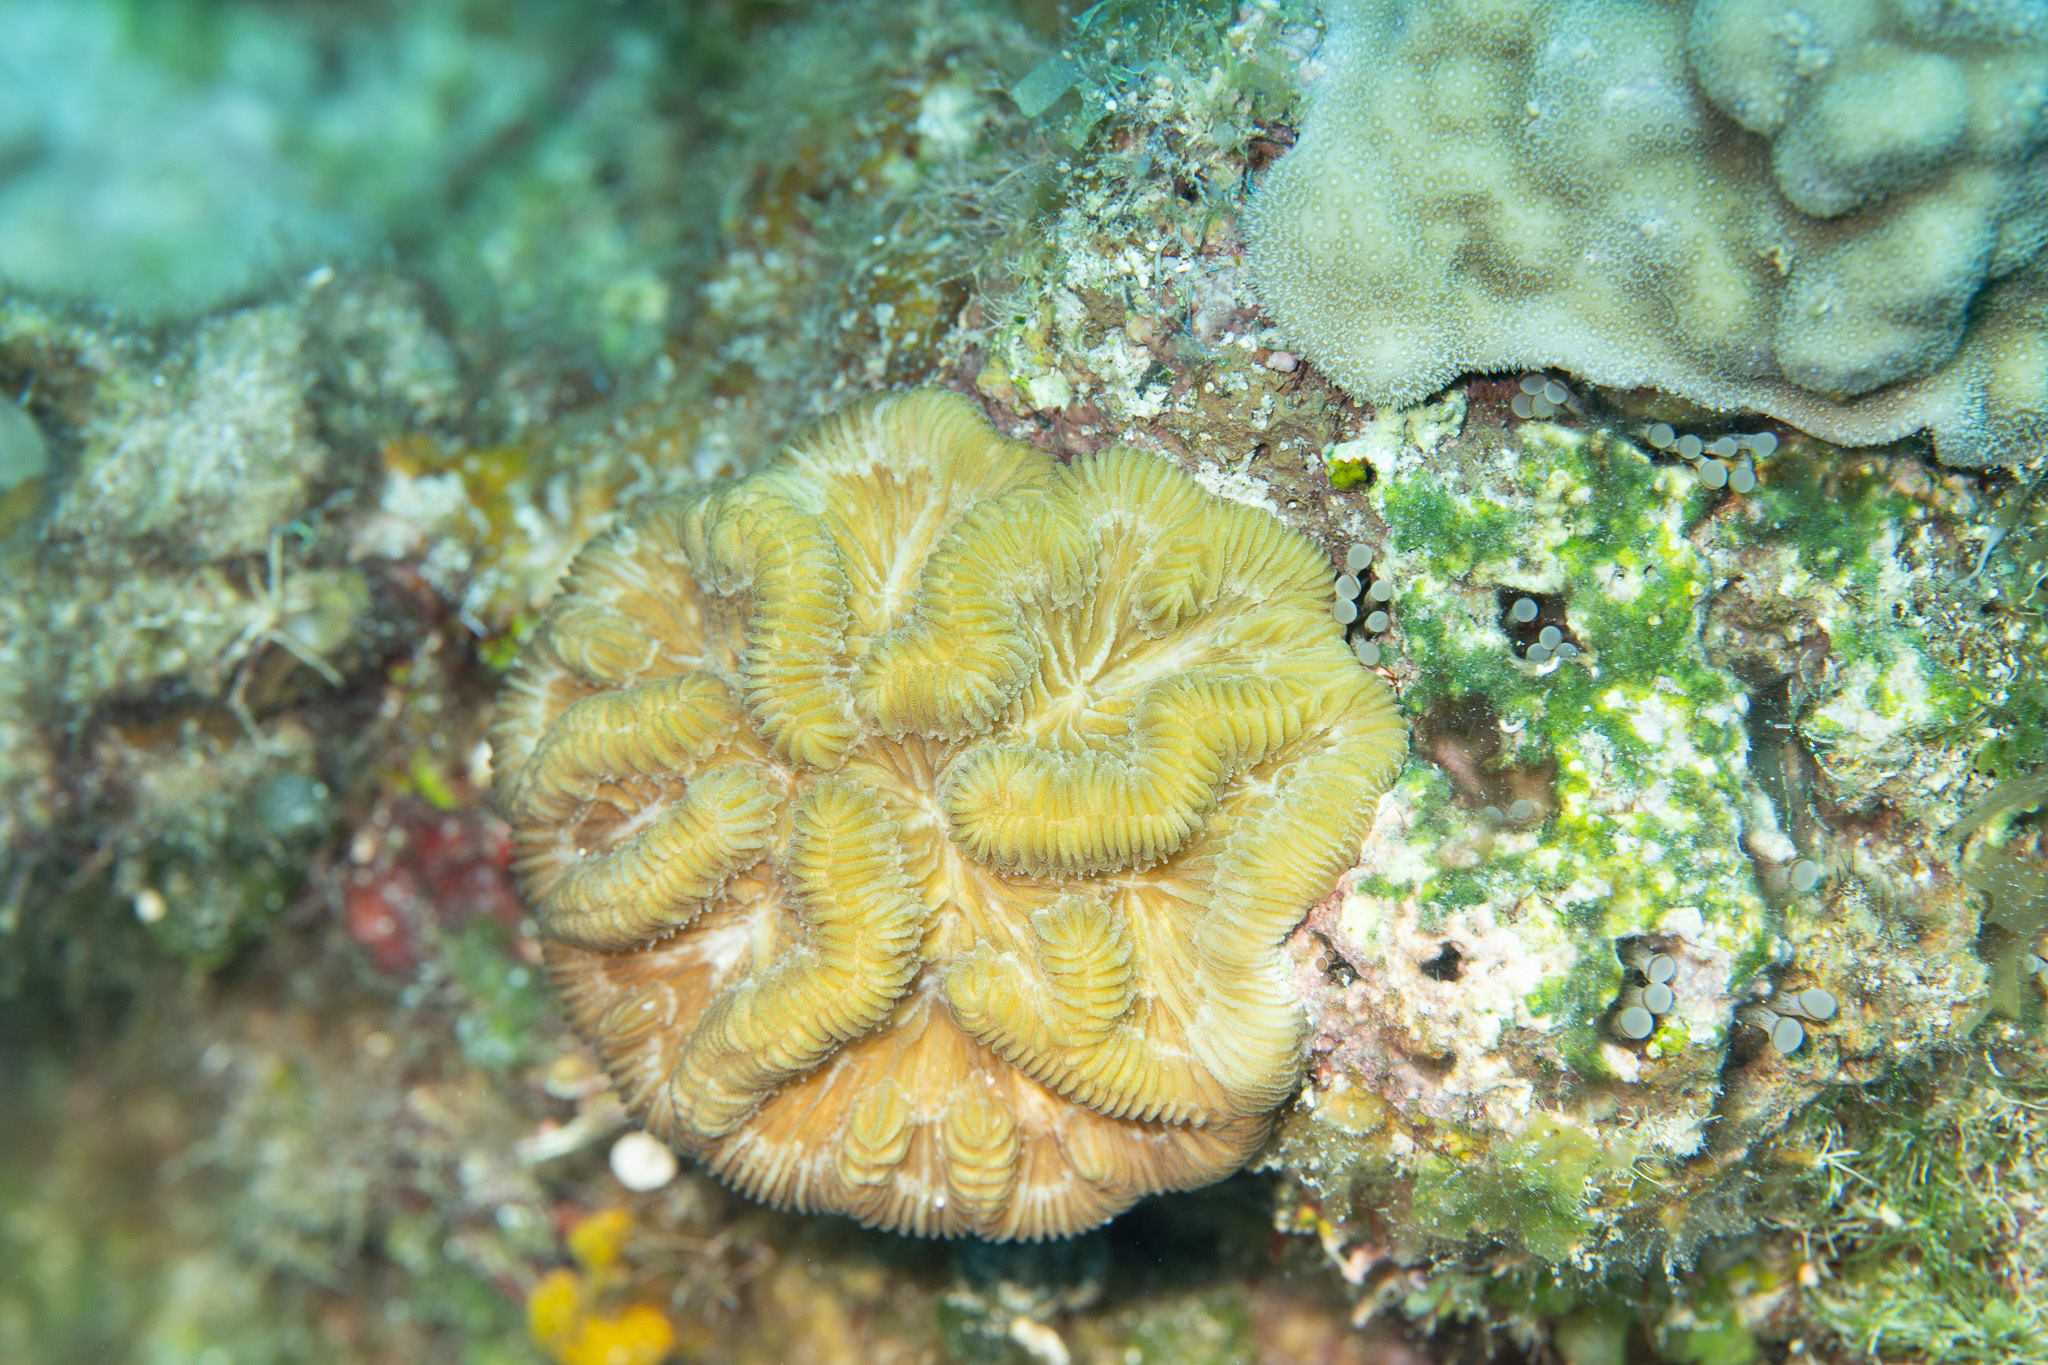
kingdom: Animalia
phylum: Cnidaria
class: Anthozoa
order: Scleractinia
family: Faviidae
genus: Colpophyllia
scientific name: Colpophyllia natans
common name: Boulder brain coral
